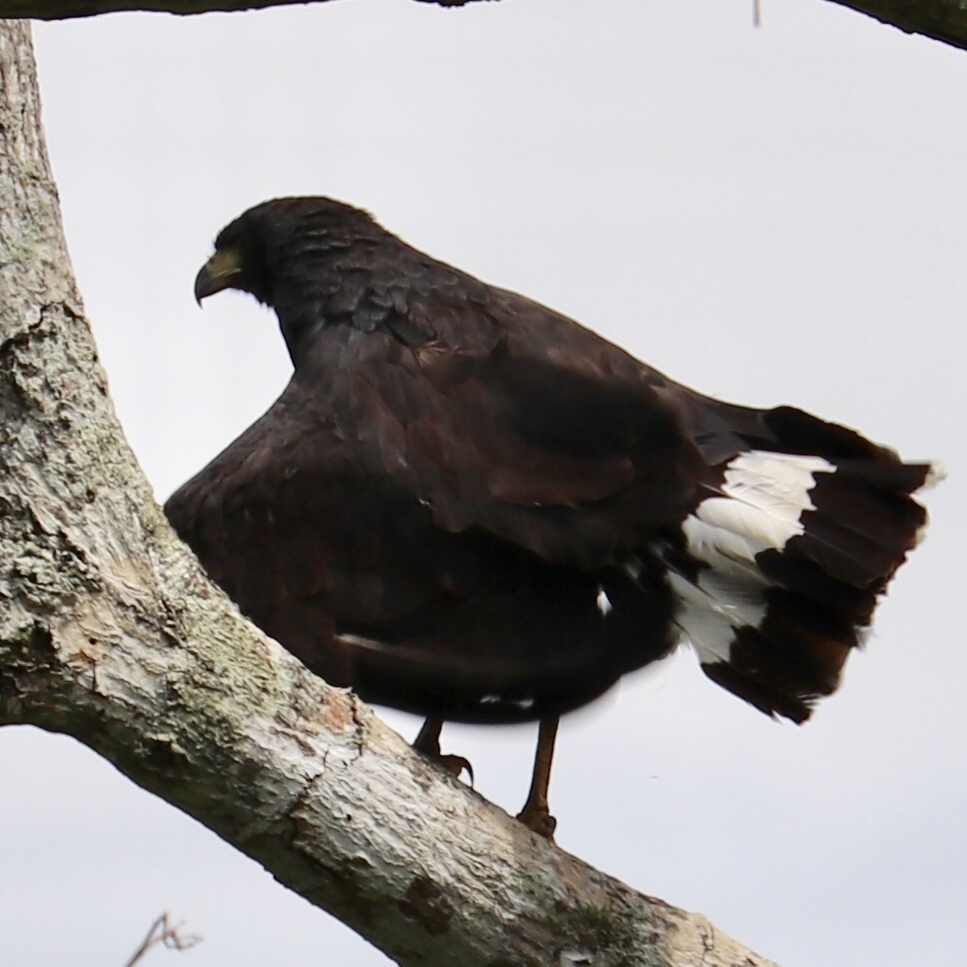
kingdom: Animalia
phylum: Chordata
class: Aves
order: Accipitriformes
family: Accipitridae
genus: Buteogallus
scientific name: Buteogallus anthracinus
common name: Common black hawk
